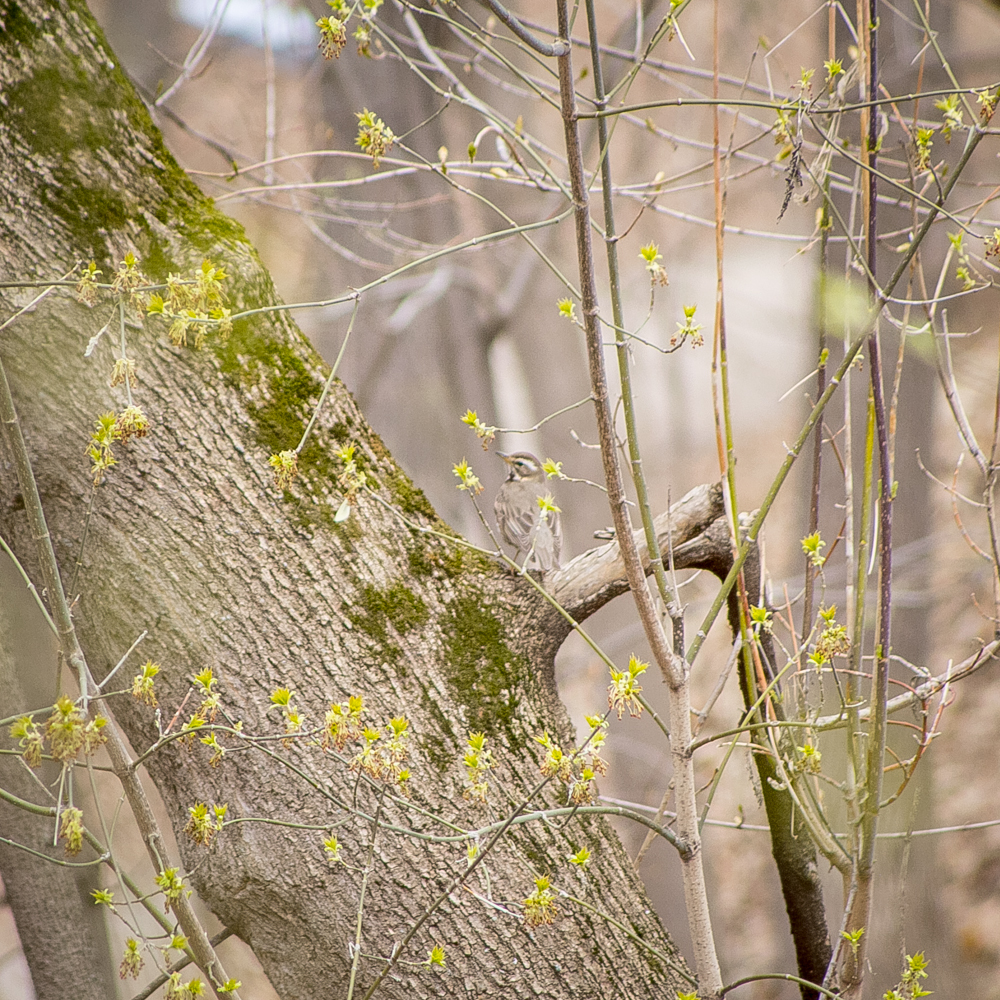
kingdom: Animalia
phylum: Chordata
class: Aves
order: Passeriformes
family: Turdidae
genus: Turdus
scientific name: Turdus iliacus
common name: Redwing
